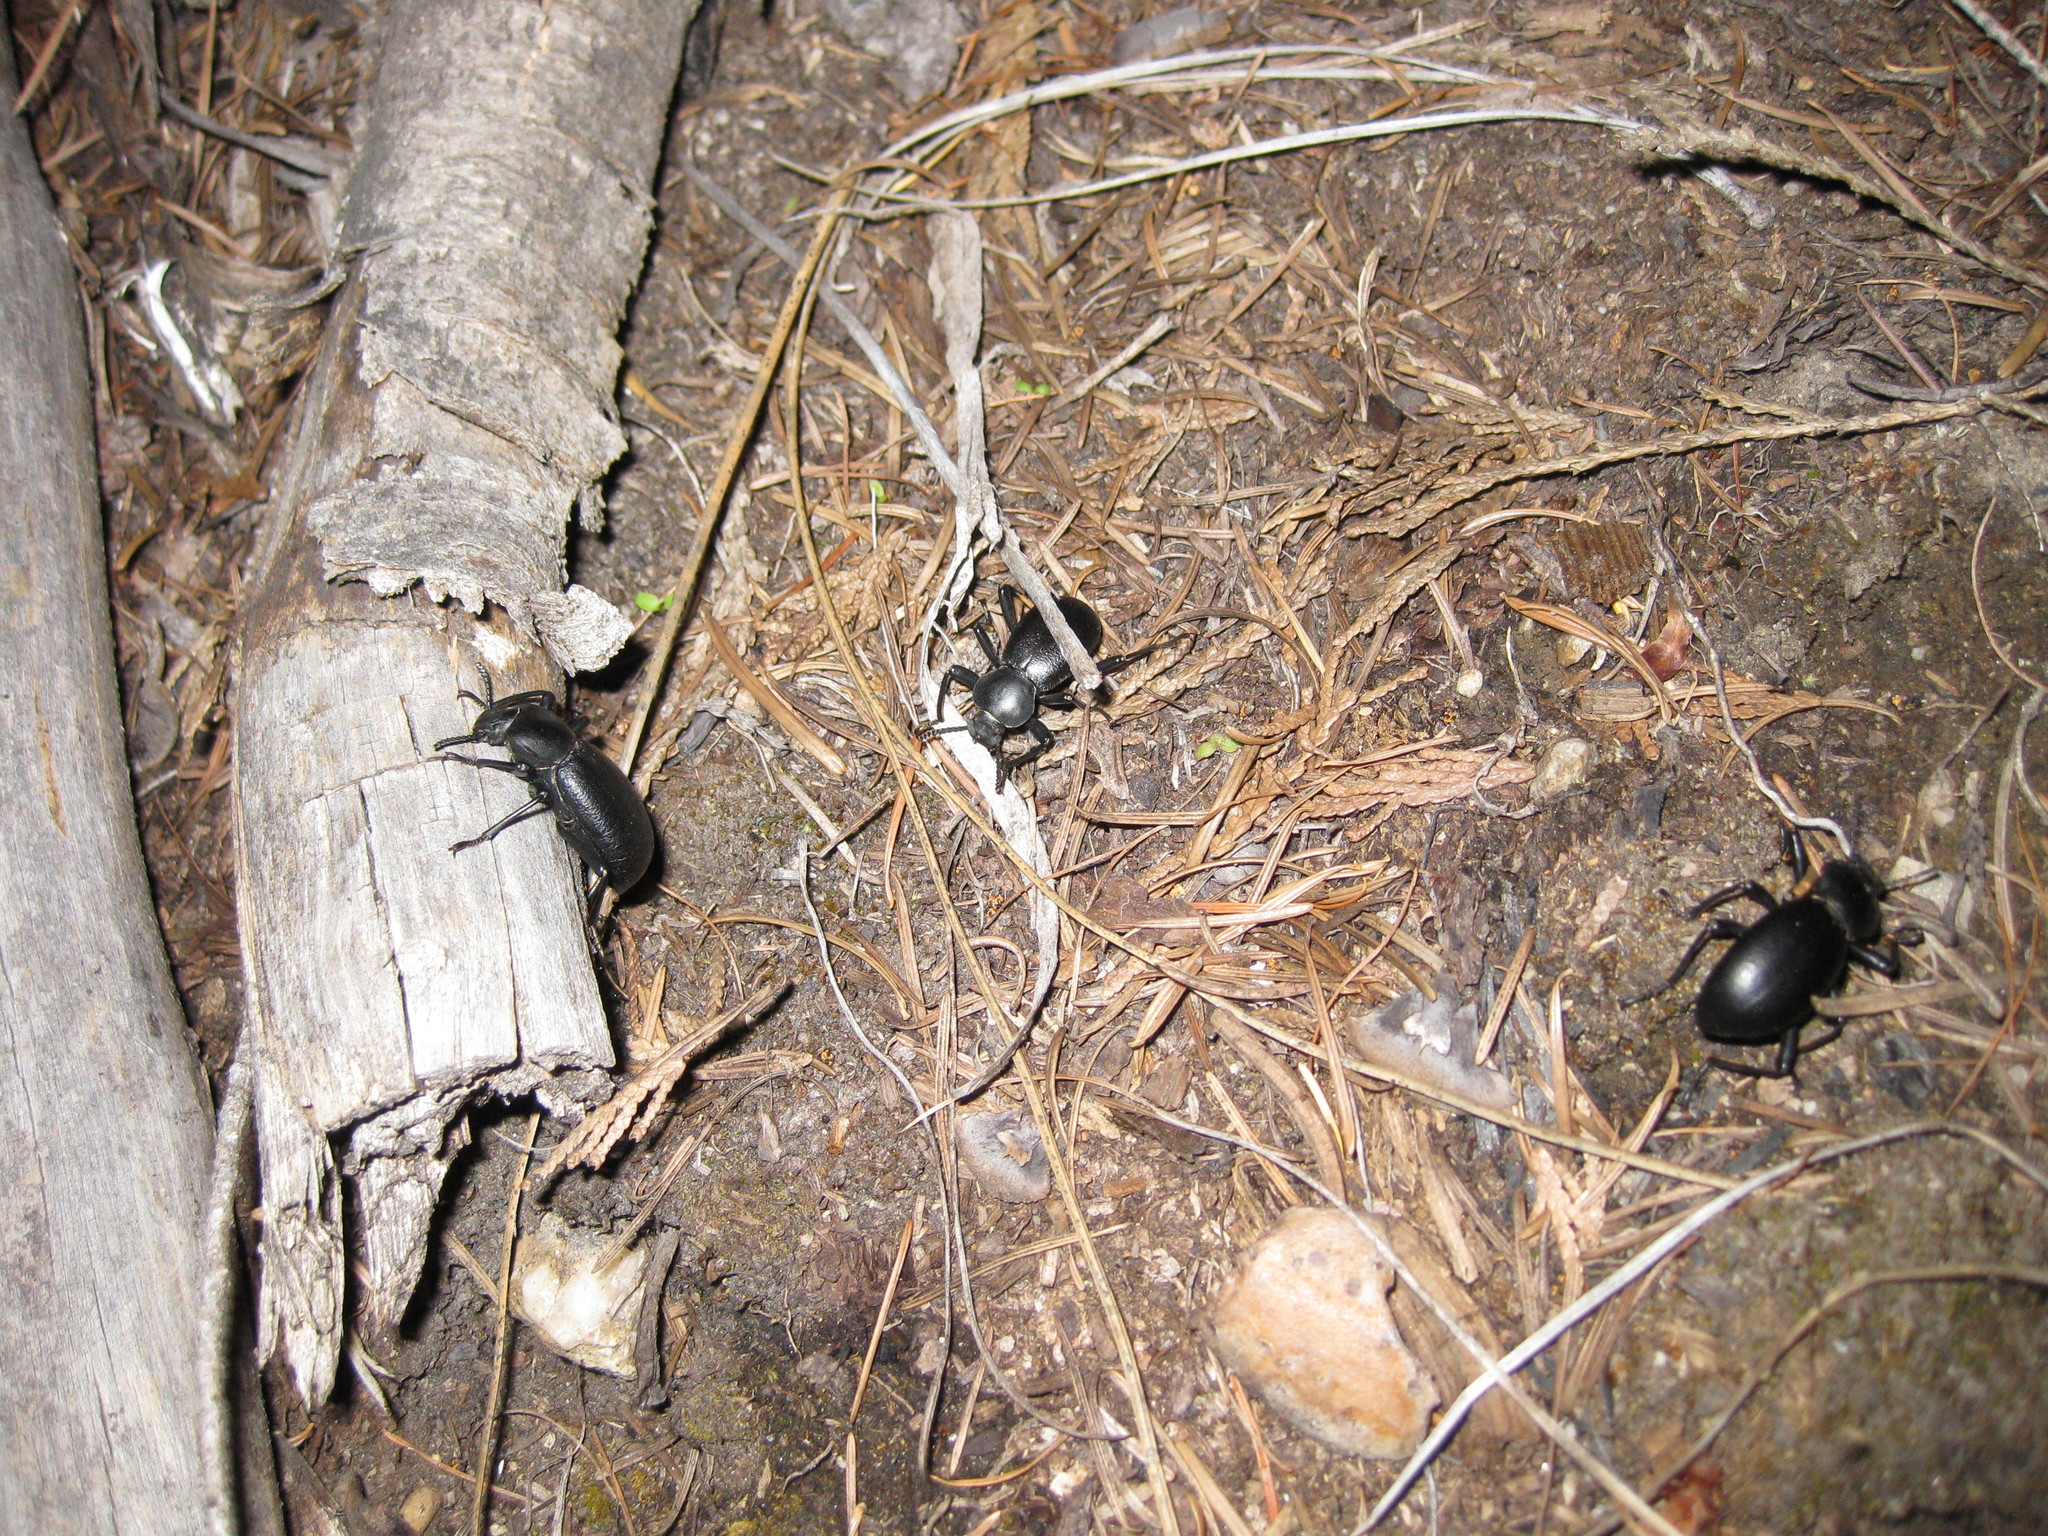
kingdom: Animalia
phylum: Arthropoda
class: Insecta
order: Coleoptera
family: Tenebrionidae
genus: Coelocnemis
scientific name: Coelocnemis dilaticollis
